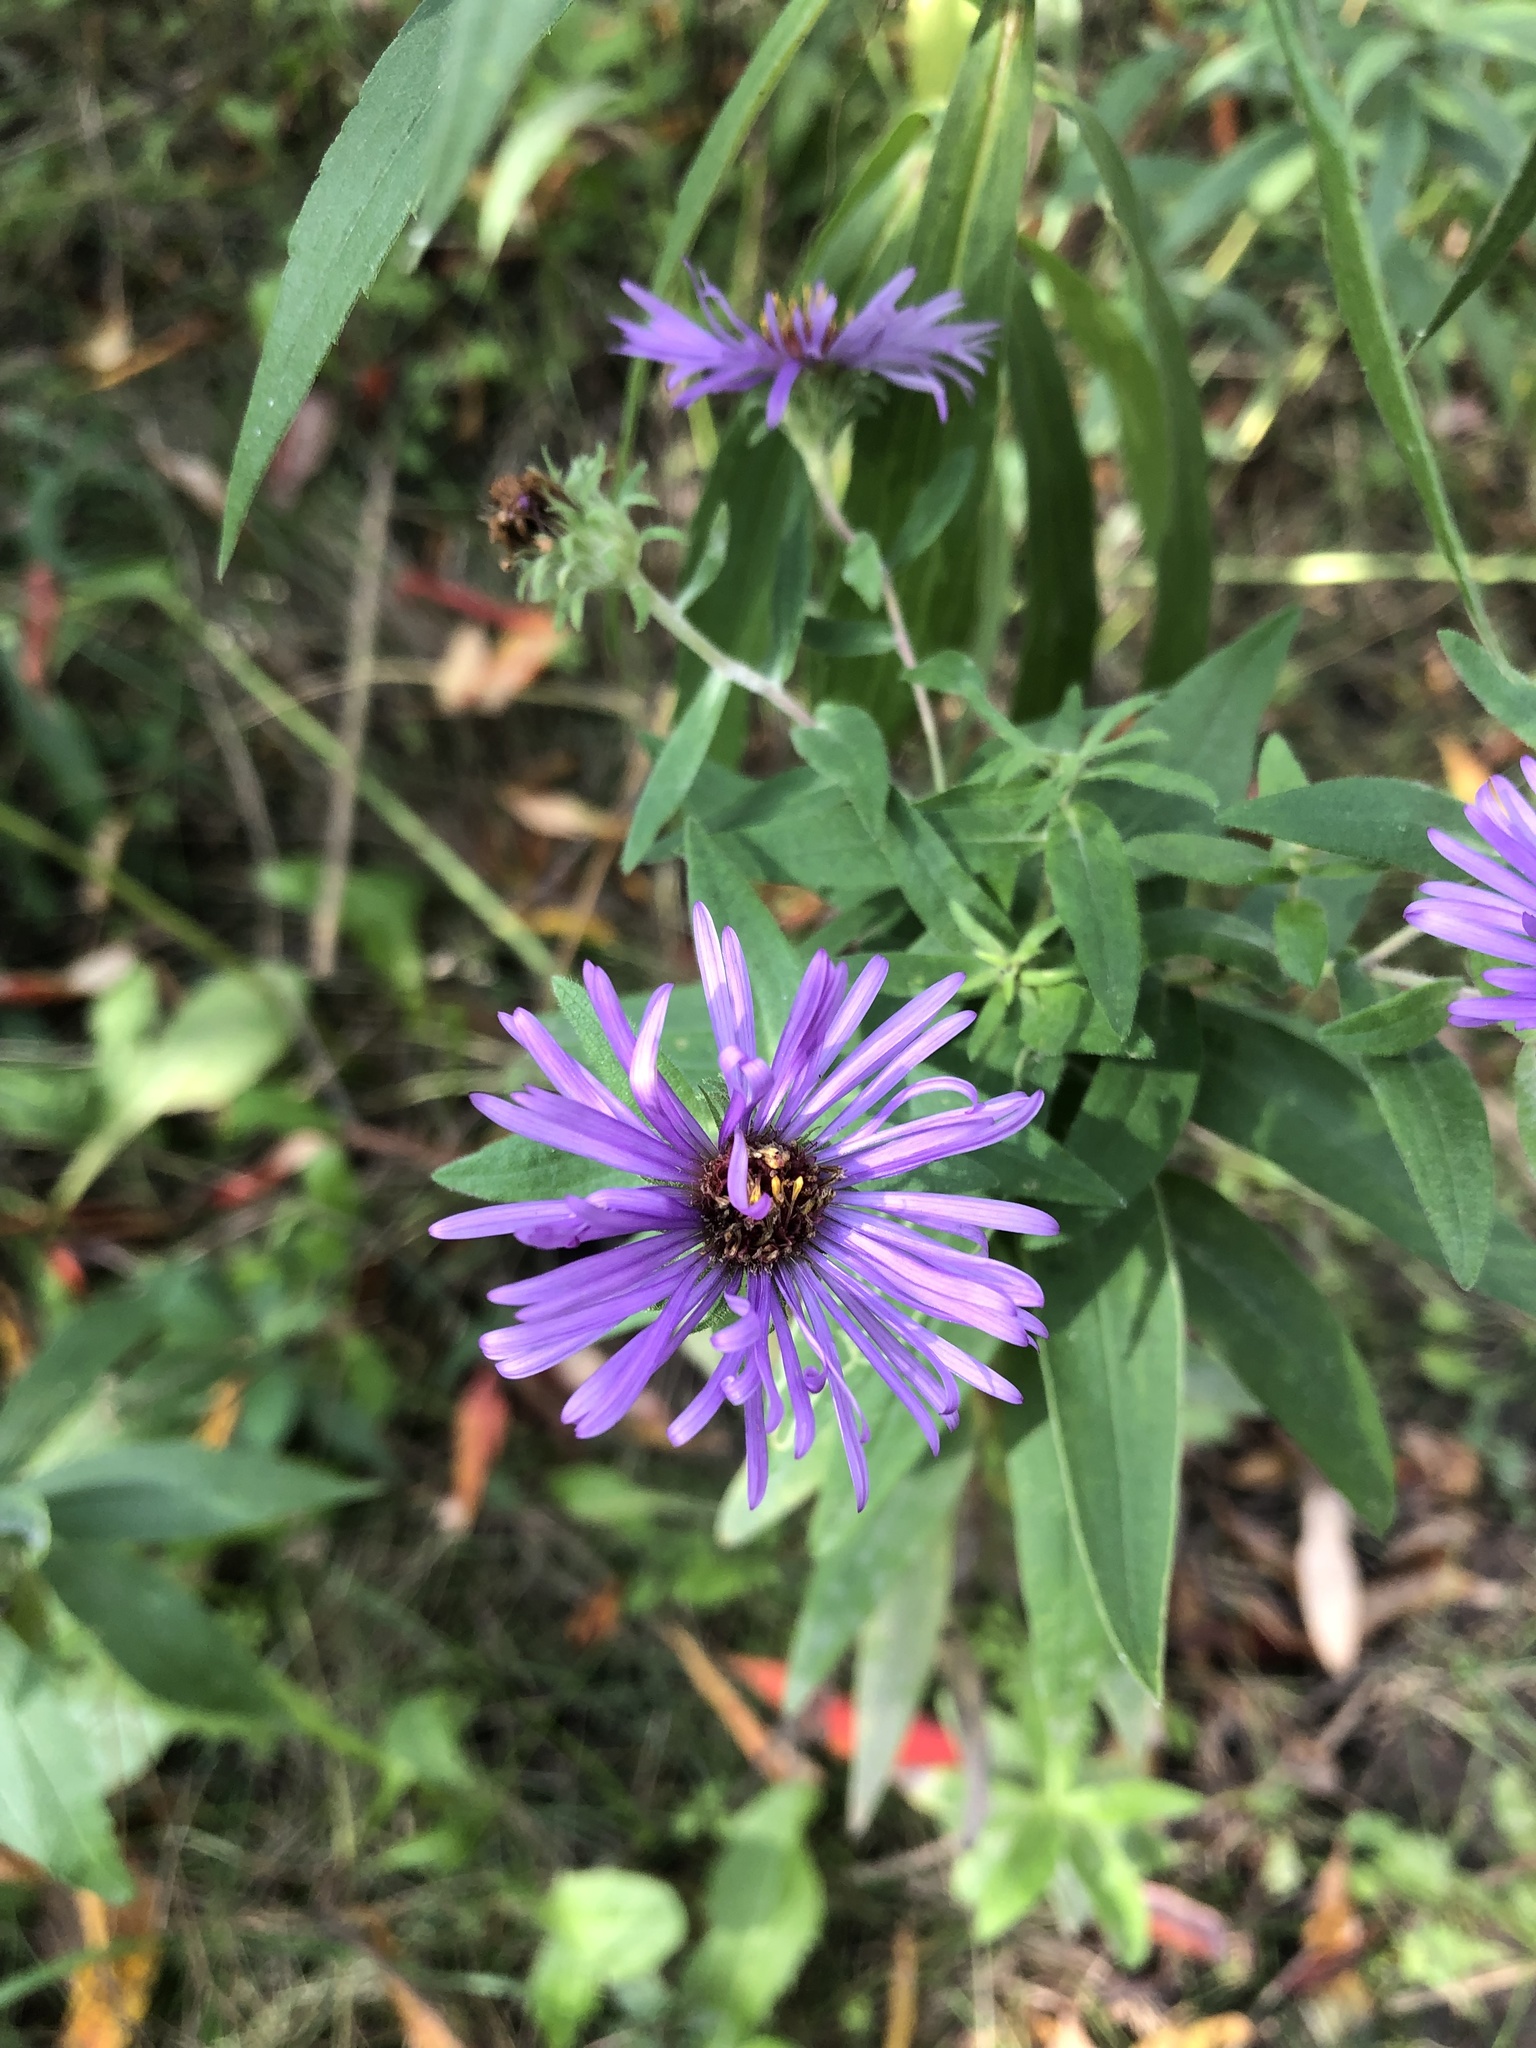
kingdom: Plantae
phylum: Tracheophyta
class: Magnoliopsida
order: Asterales
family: Asteraceae
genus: Symphyotrichum
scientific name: Symphyotrichum novae-angliae
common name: Michaelmas daisy
